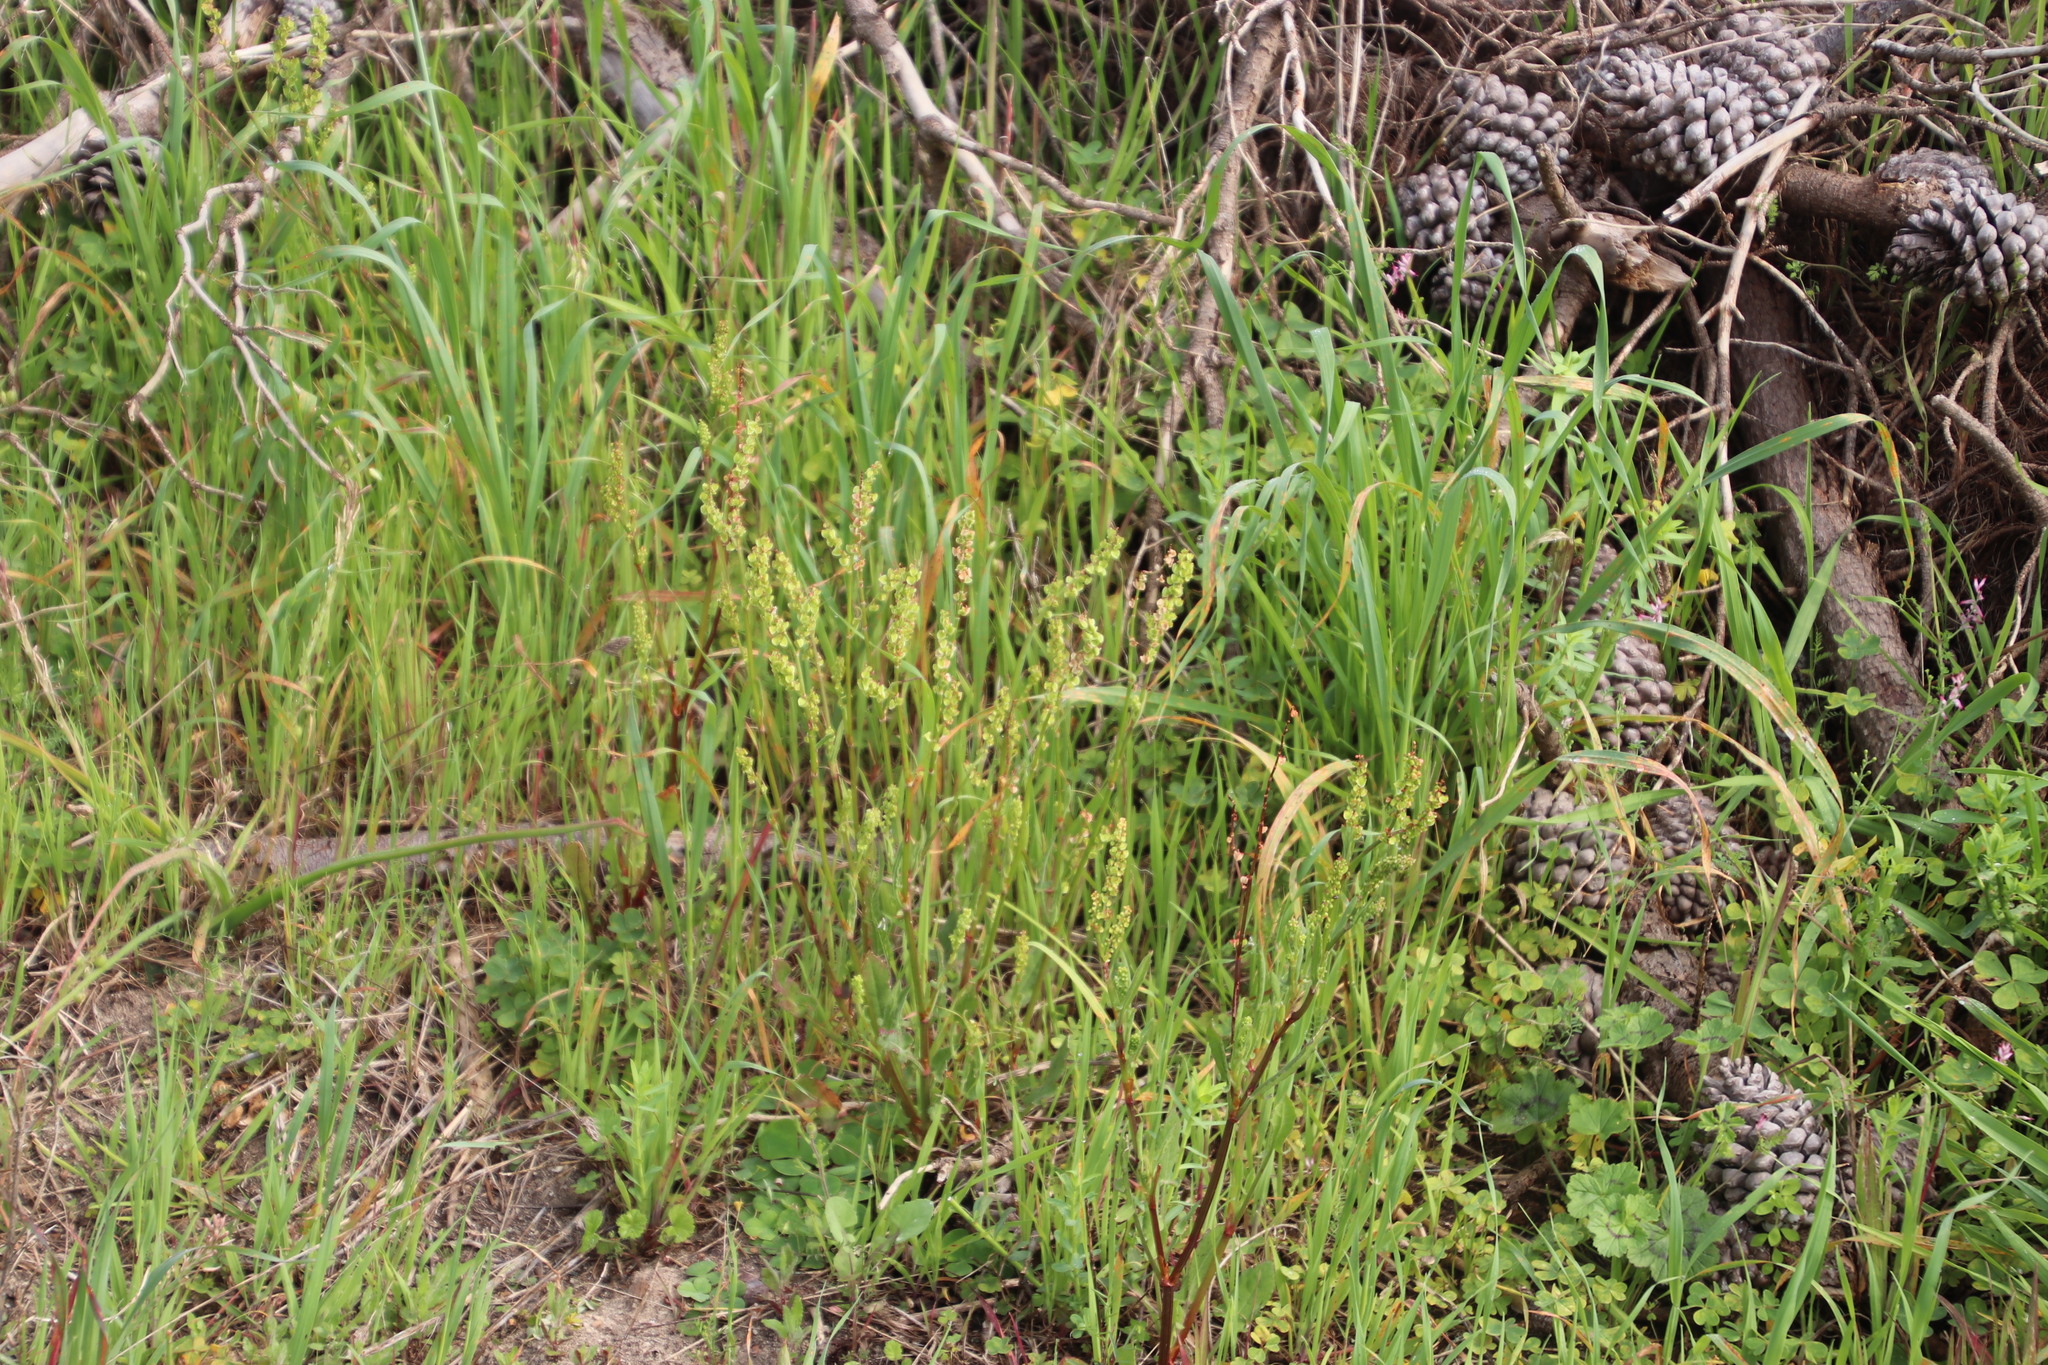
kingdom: Plantae
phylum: Tracheophyta
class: Magnoliopsida
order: Caryophyllales
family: Polygonaceae
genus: Rumex
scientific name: Rumex cordatus
